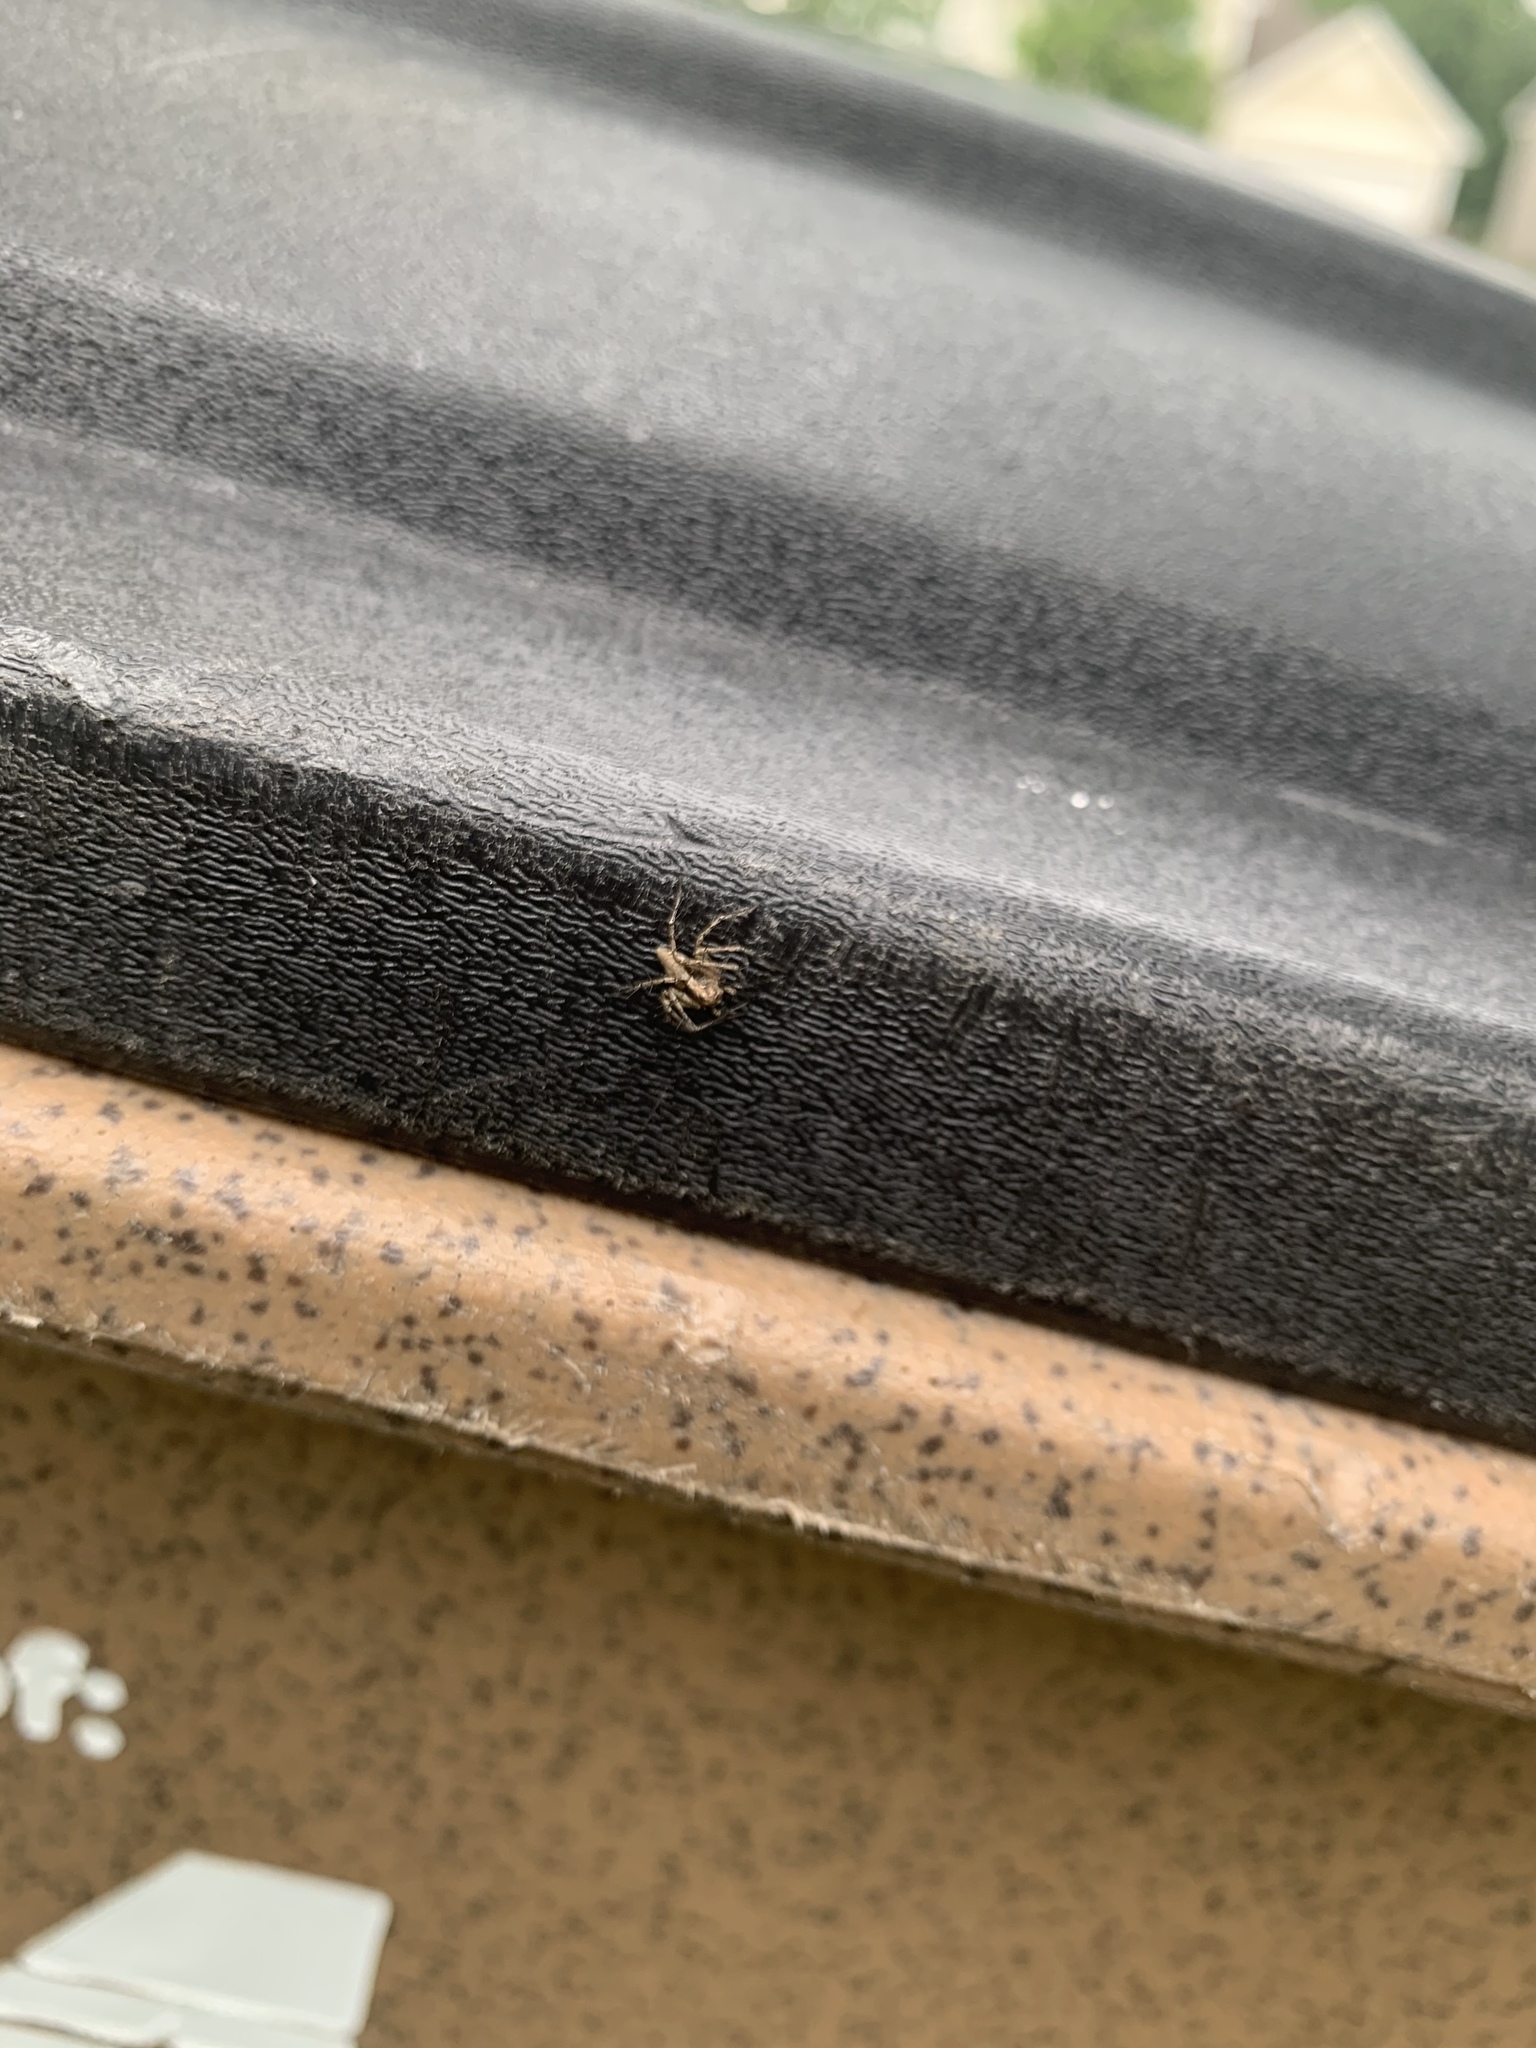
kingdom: Animalia
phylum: Arthropoda
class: Arachnida
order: Araneae
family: Oxyopidae
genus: Oxyopes
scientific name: Oxyopes scalaris
